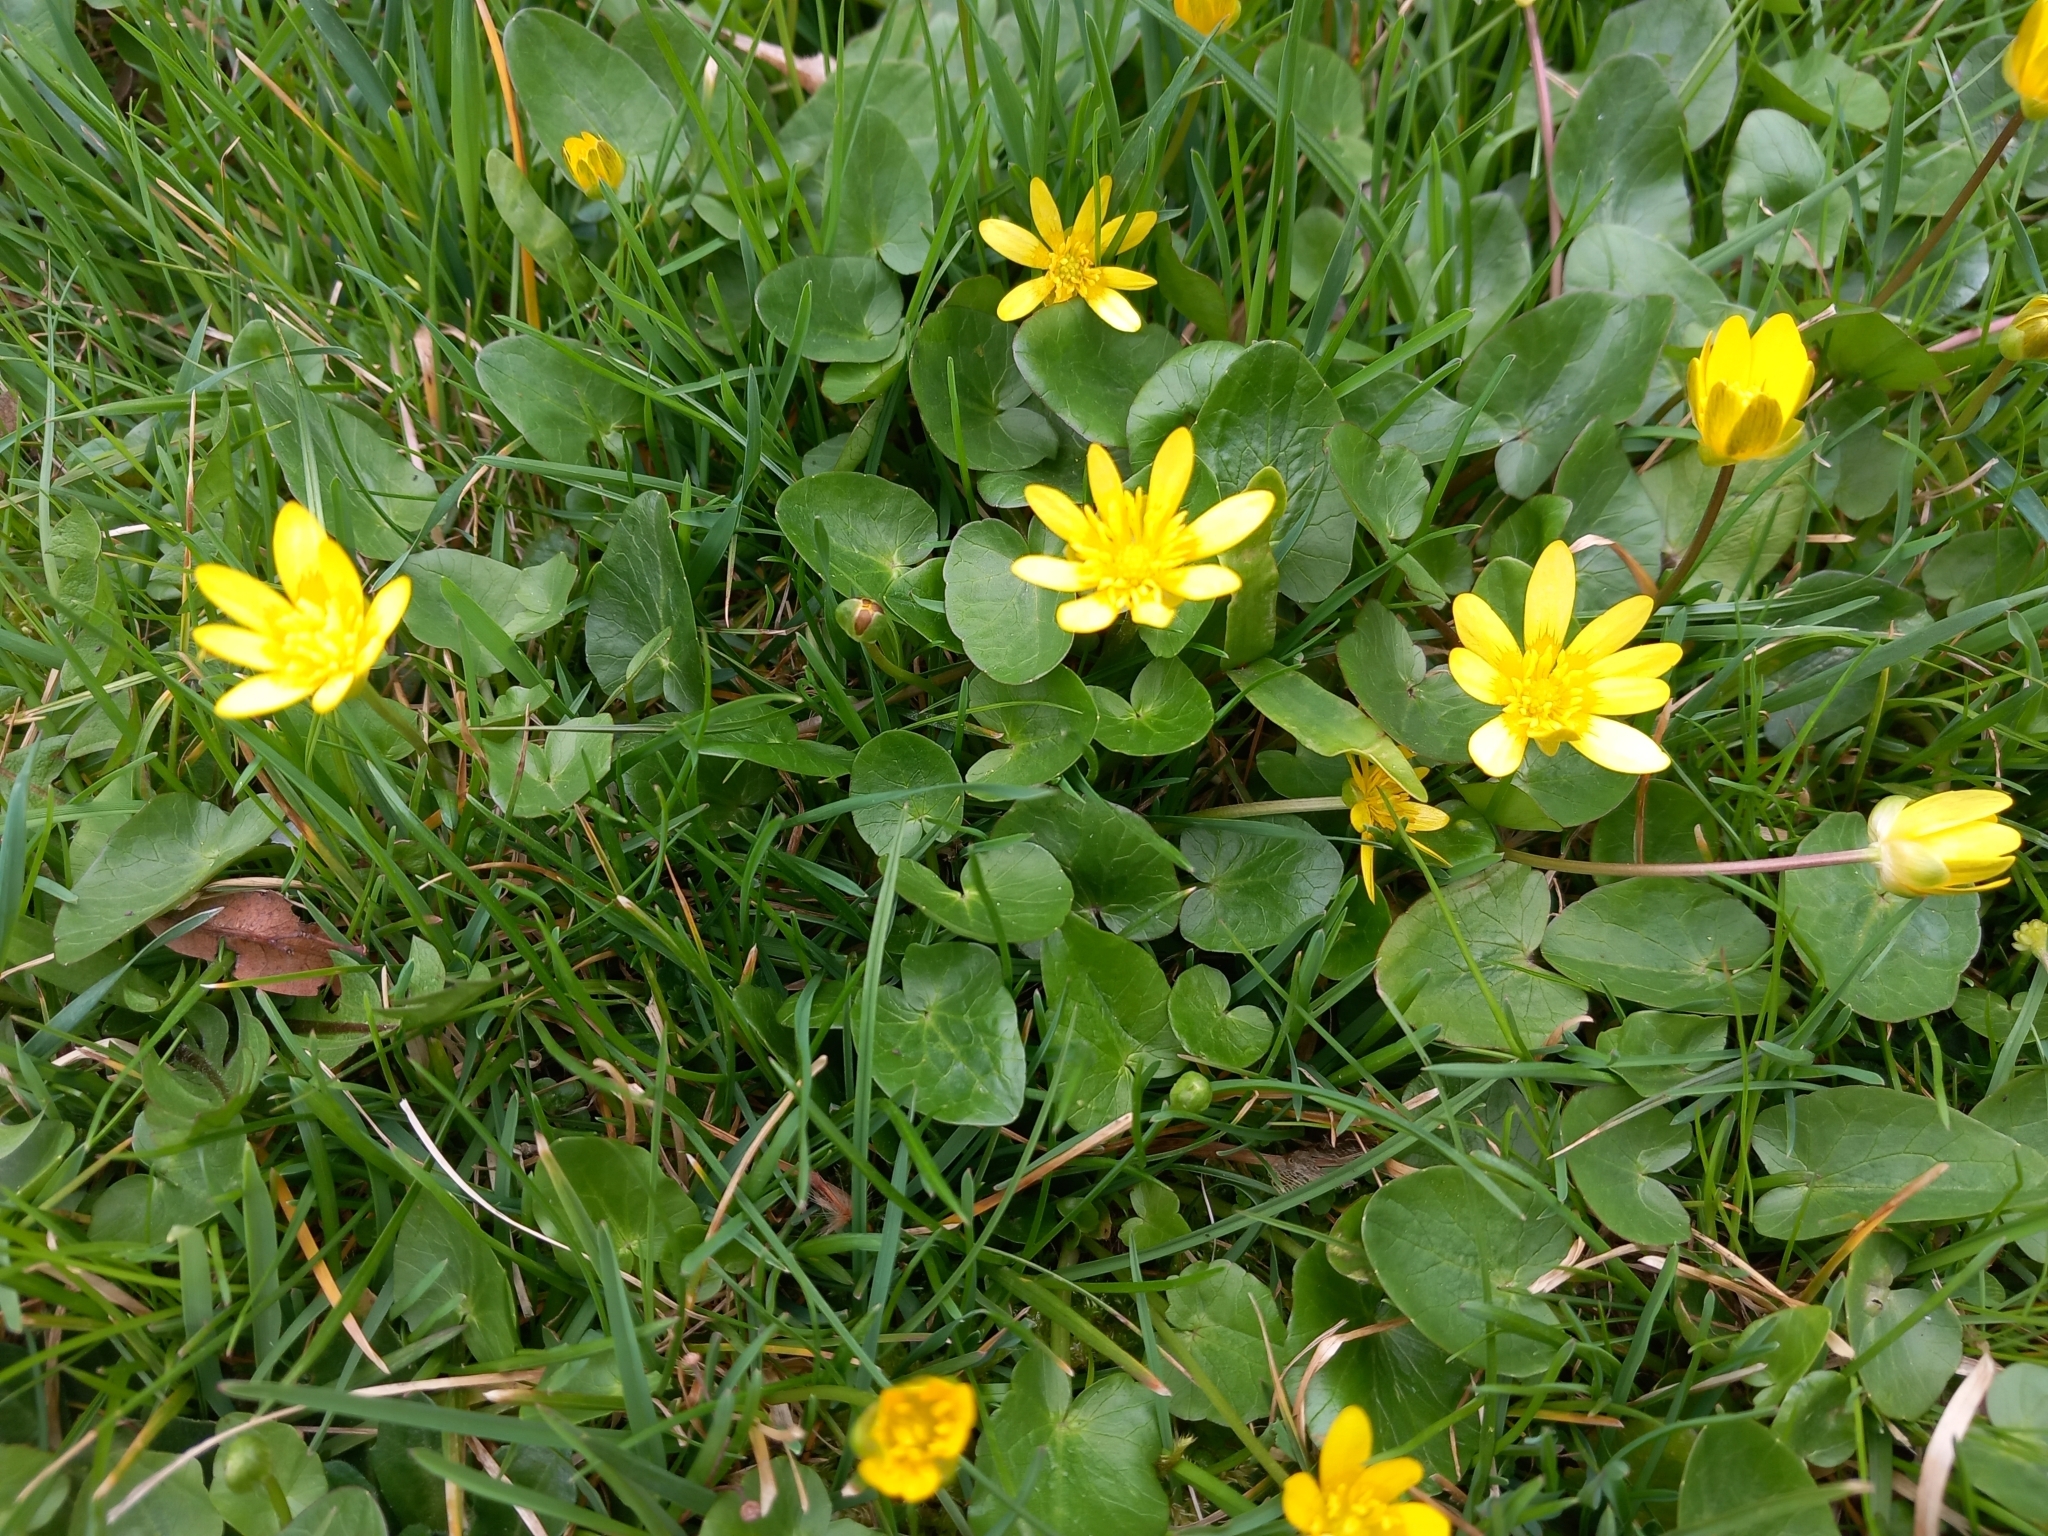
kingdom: Plantae
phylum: Tracheophyta
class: Magnoliopsida
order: Ranunculales
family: Ranunculaceae
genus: Ficaria
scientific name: Ficaria verna
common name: Lesser celandine
